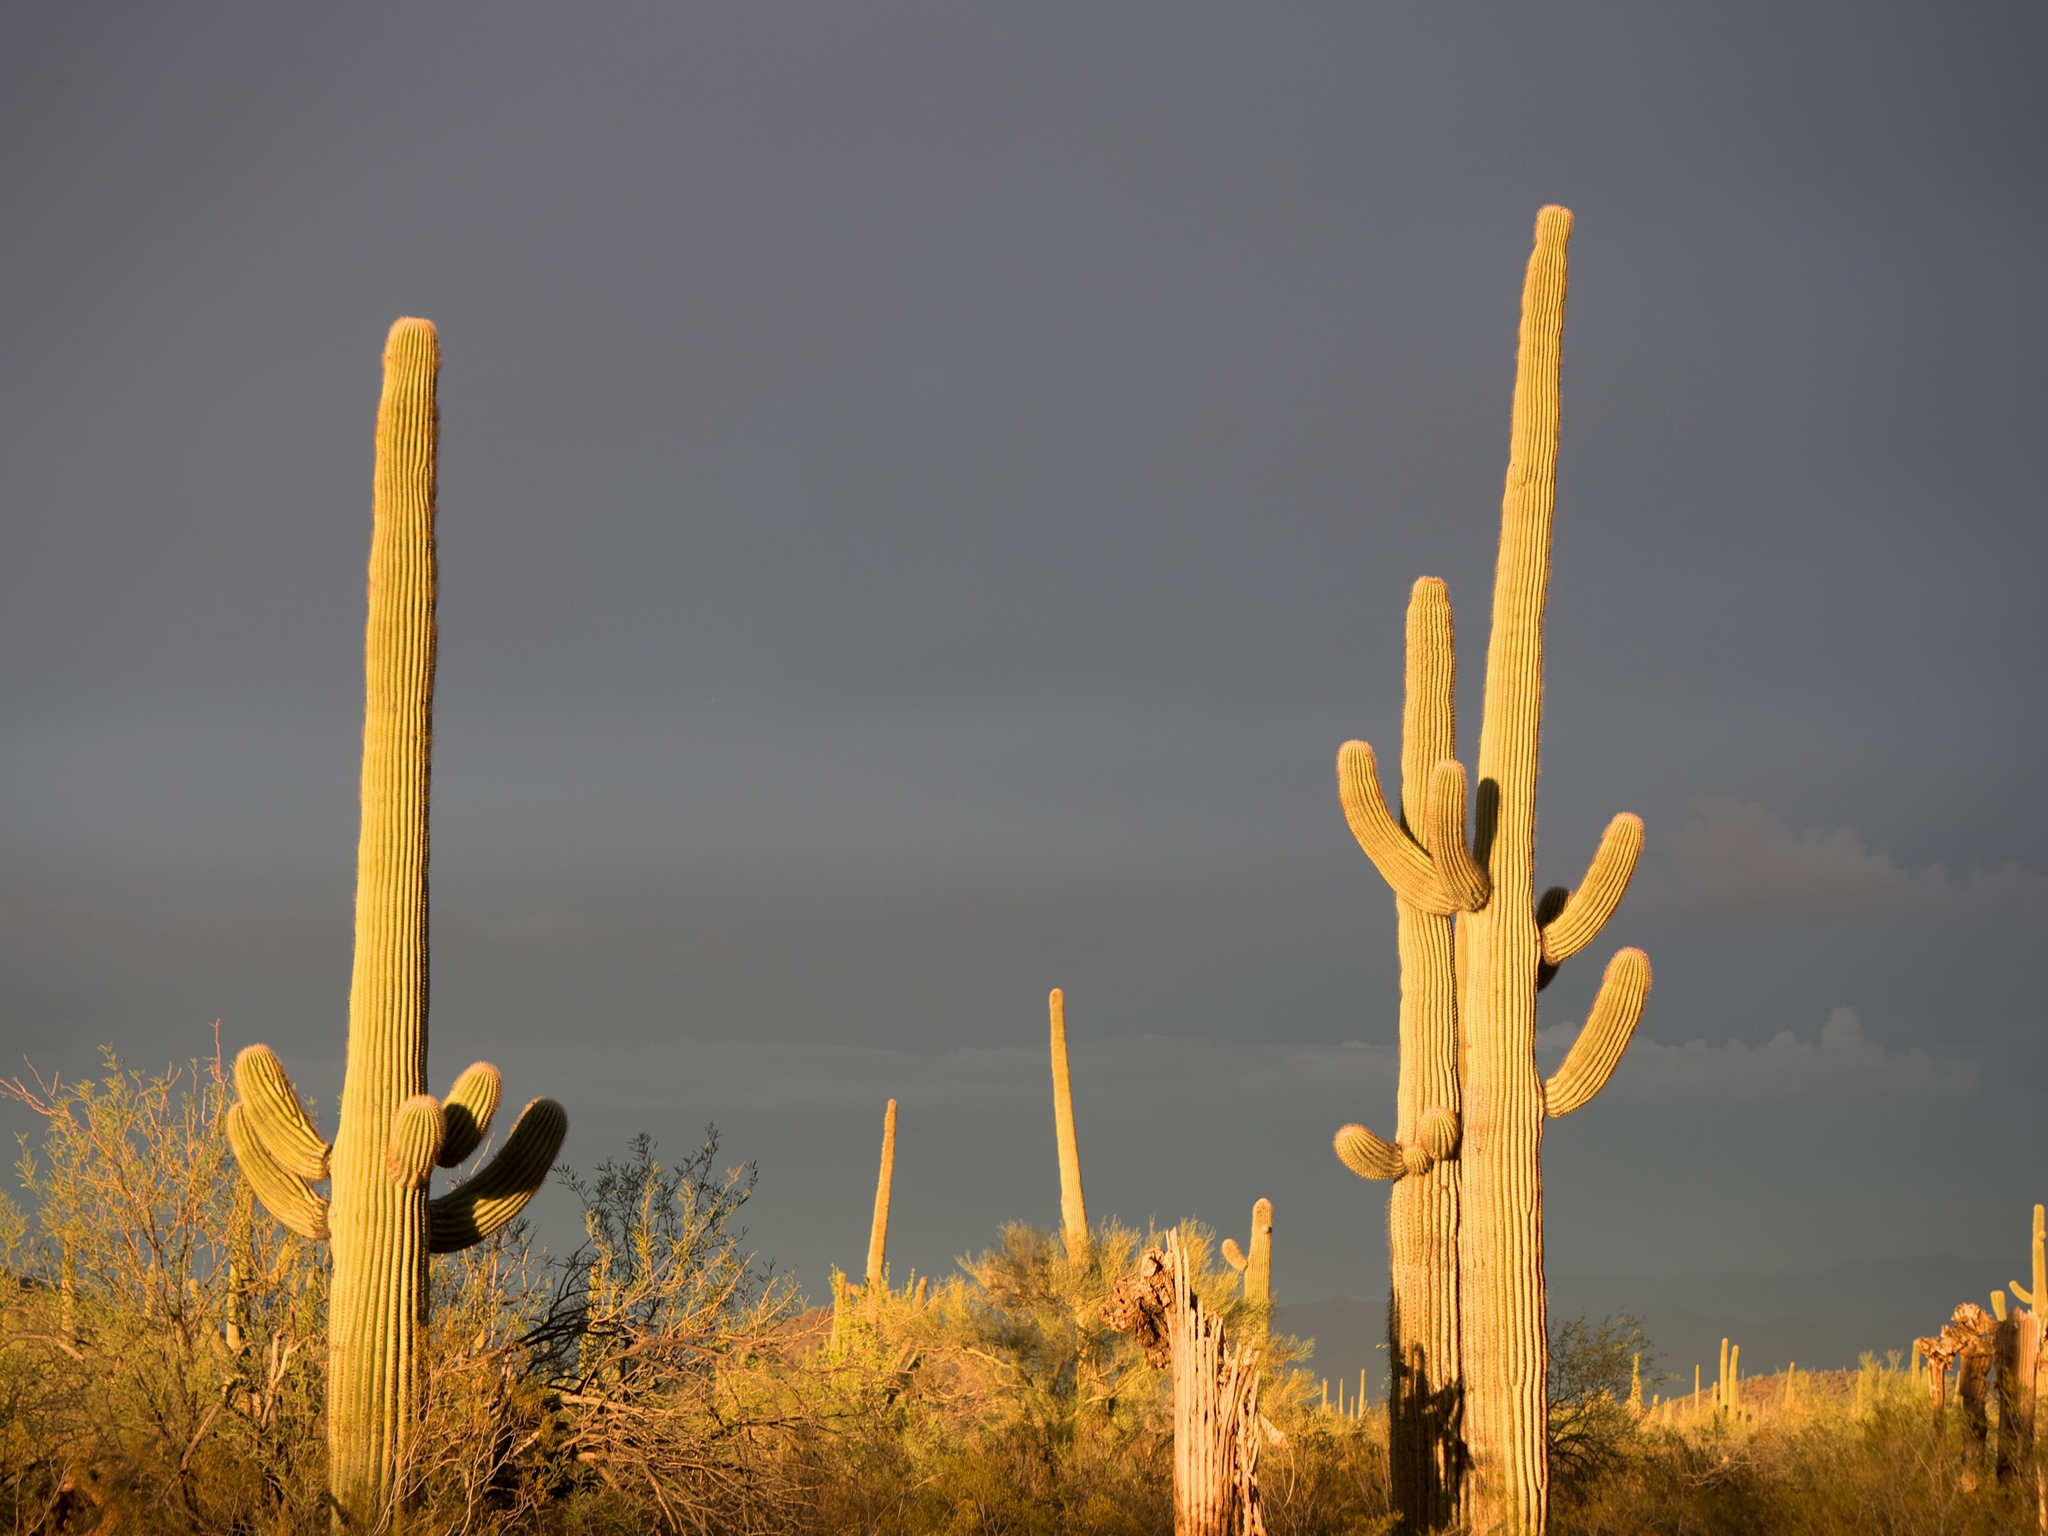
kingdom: Plantae
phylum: Tracheophyta
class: Magnoliopsida
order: Caryophyllales
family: Cactaceae
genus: Carnegiea
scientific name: Carnegiea gigantea
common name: Saguaro
